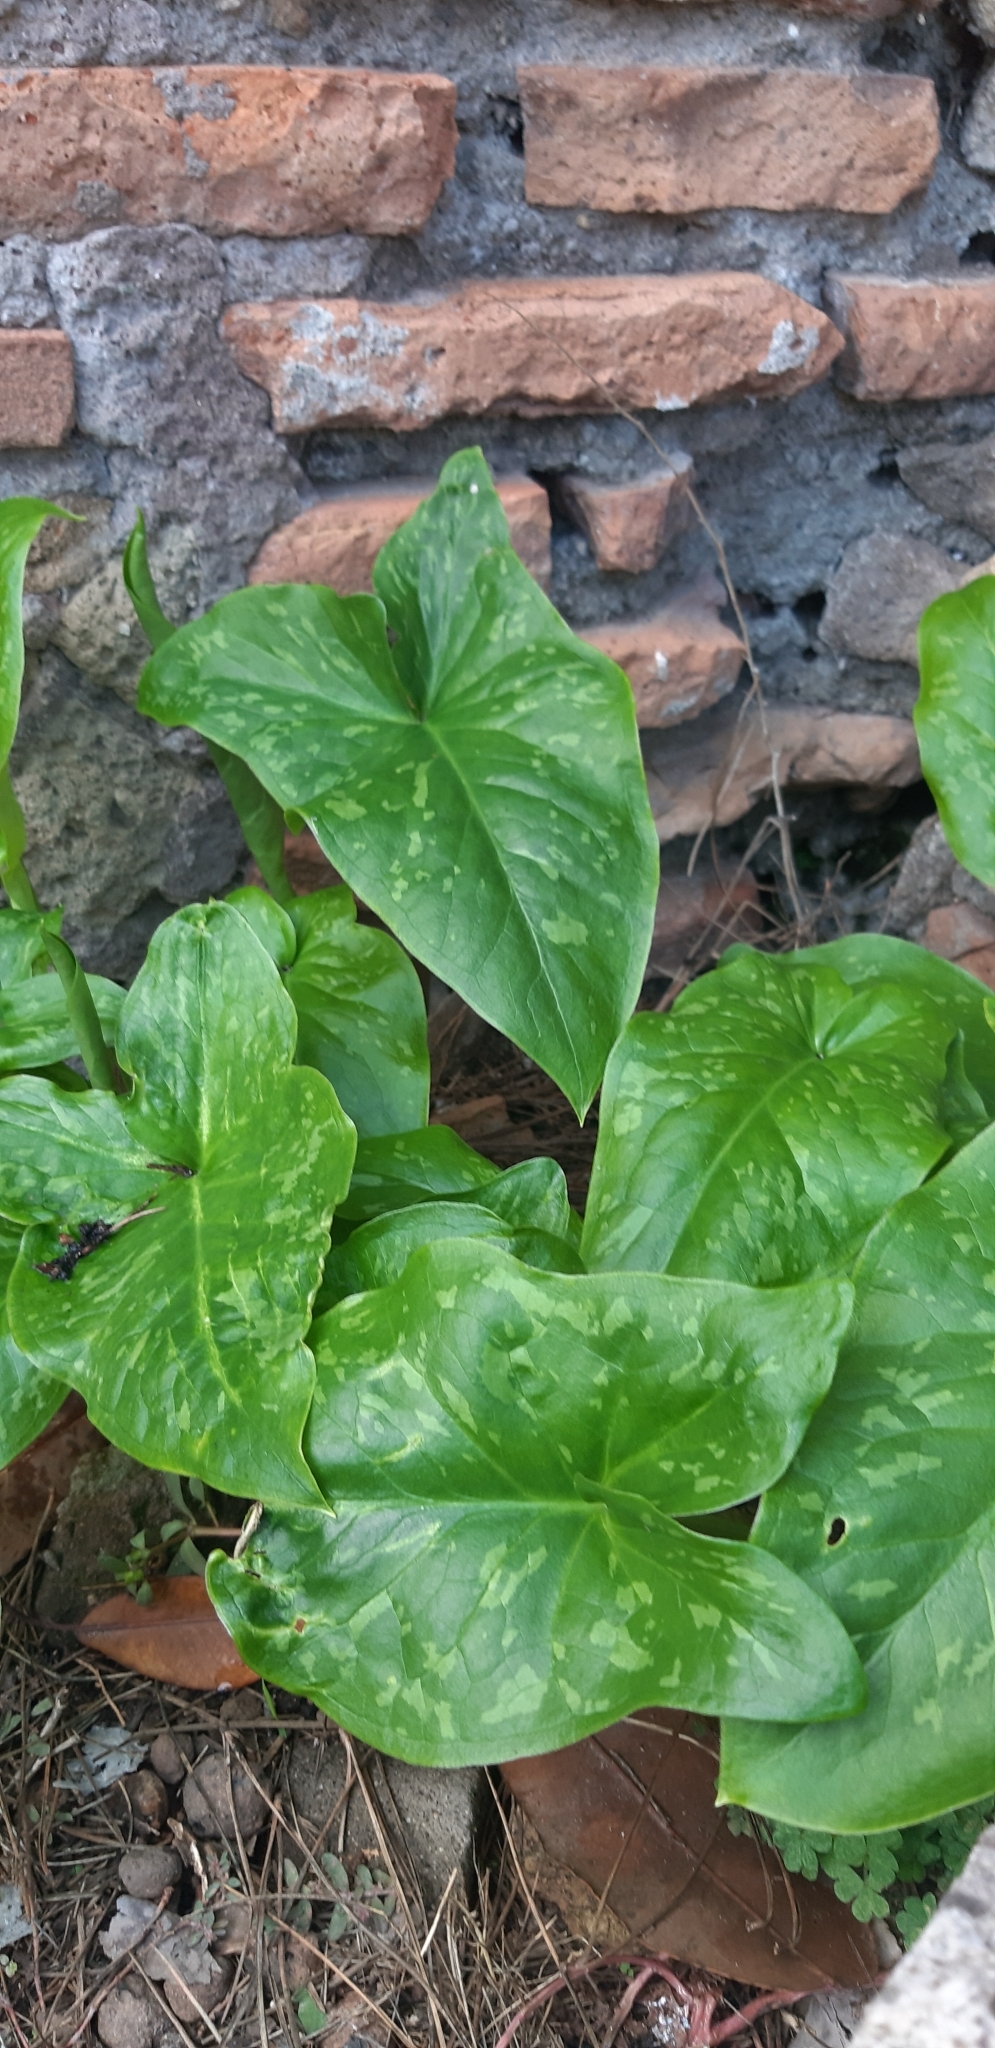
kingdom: Plantae
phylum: Tracheophyta
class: Liliopsida
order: Alismatales
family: Araceae
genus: Arum
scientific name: Arum italicum
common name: Italian lords-and-ladies
